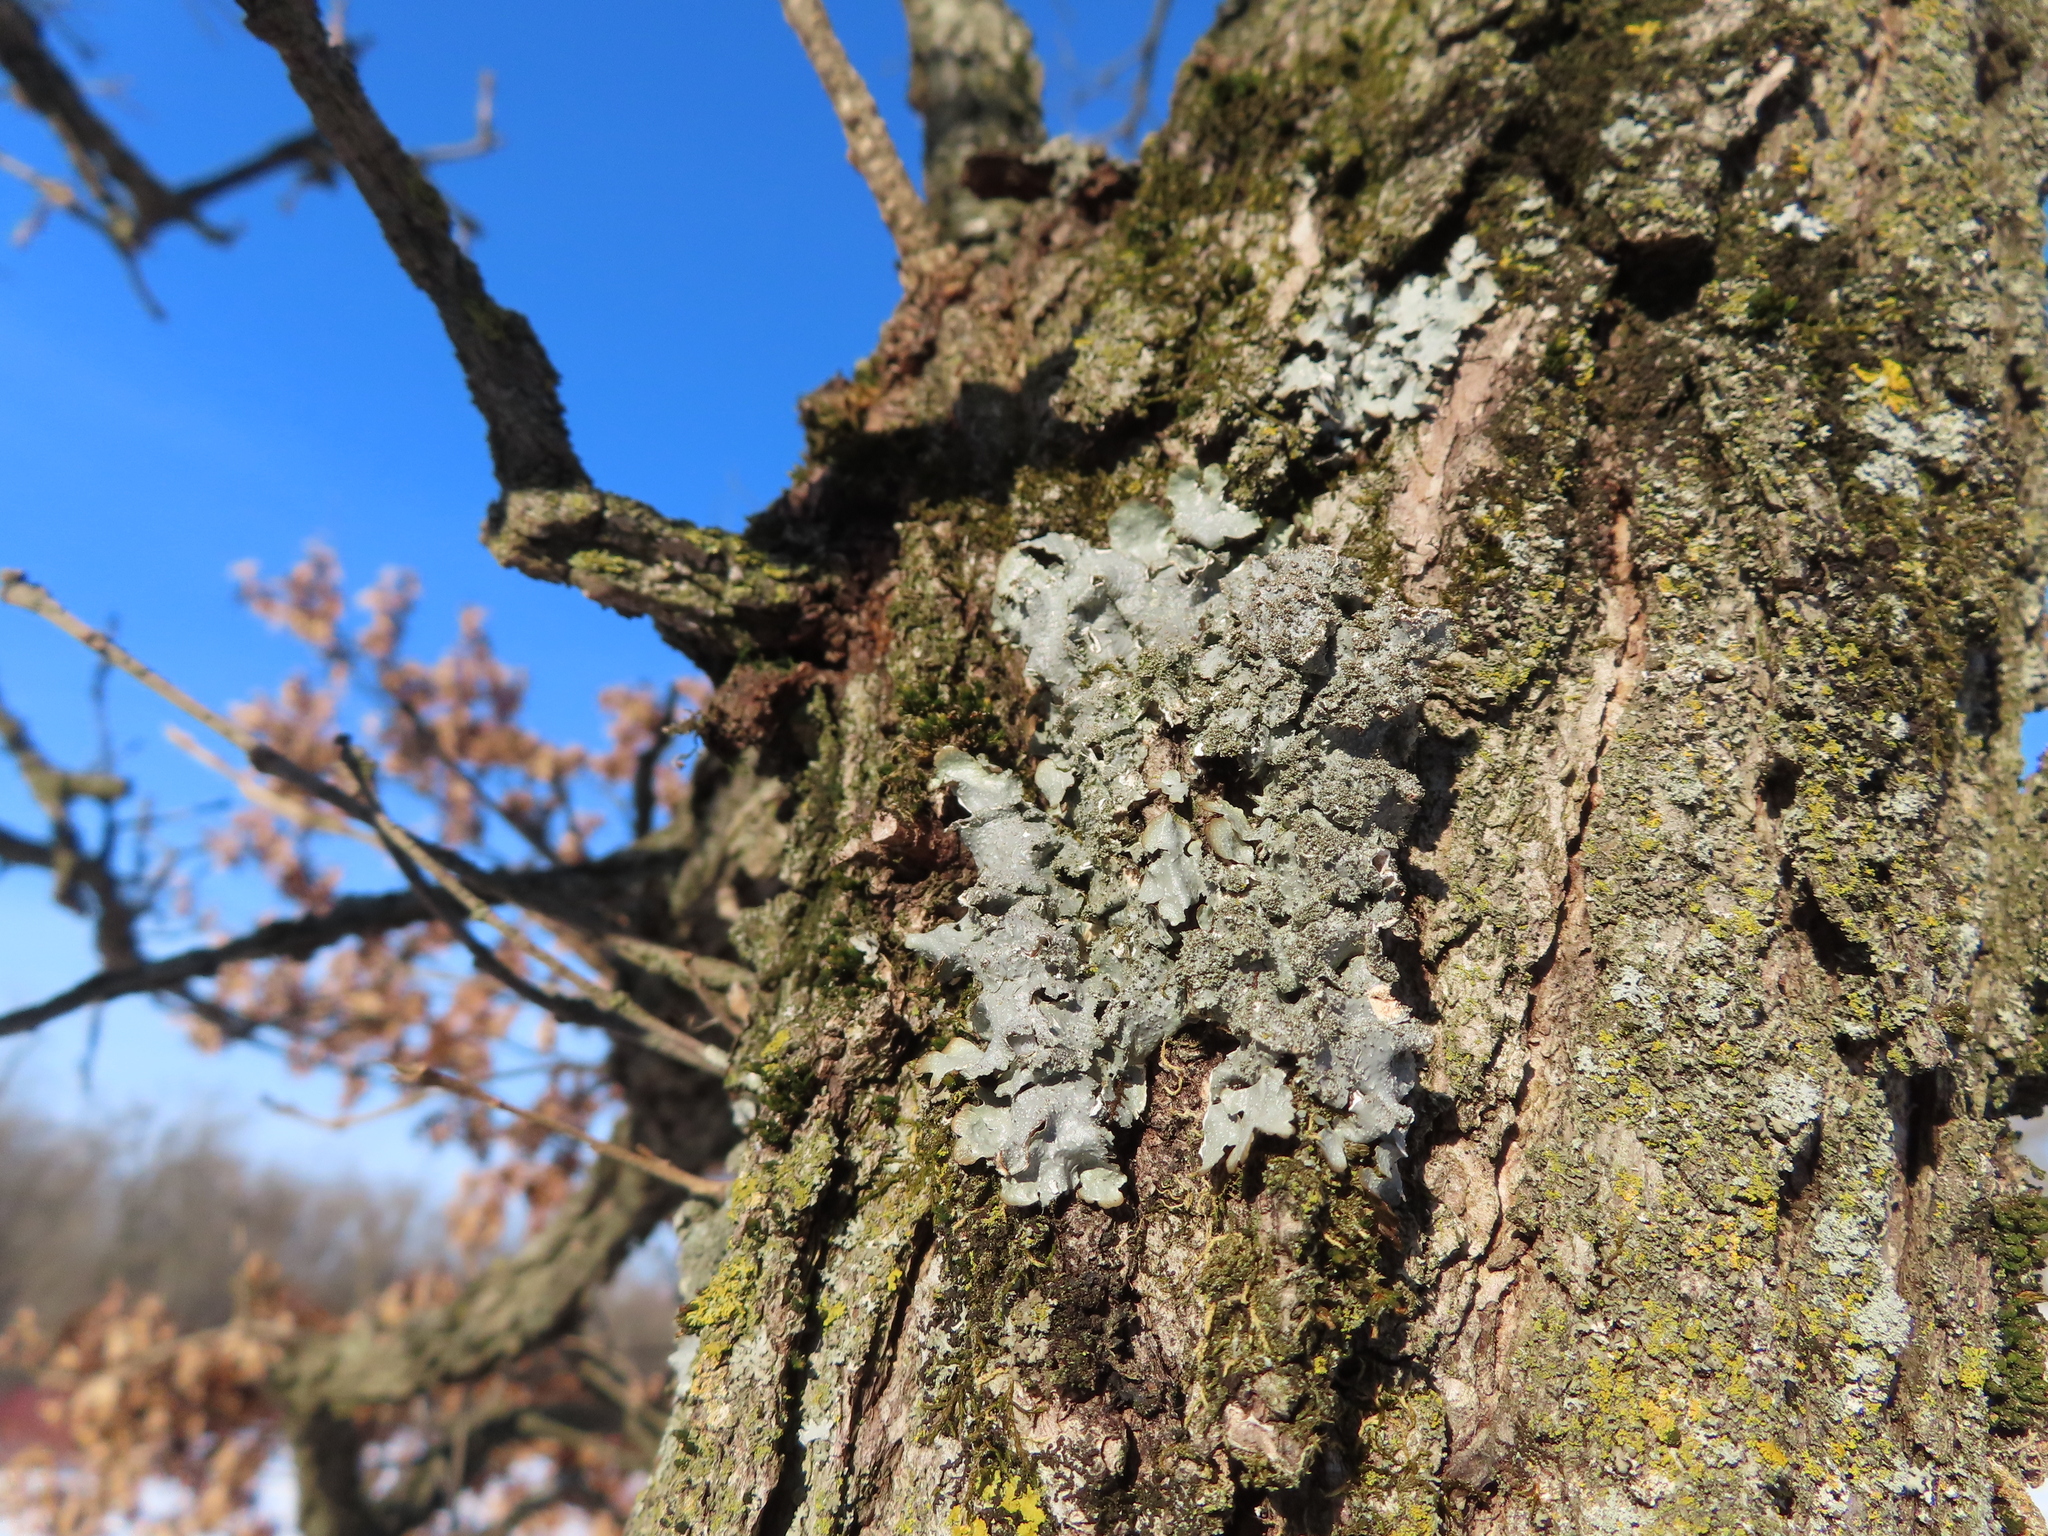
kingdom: Fungi
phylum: Ascomycota
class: Lecanoromycetes
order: Lecanorales
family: Parmeliaceae
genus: Punctelia
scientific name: Punctelia rudecta
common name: Rough speckled shield lichen
